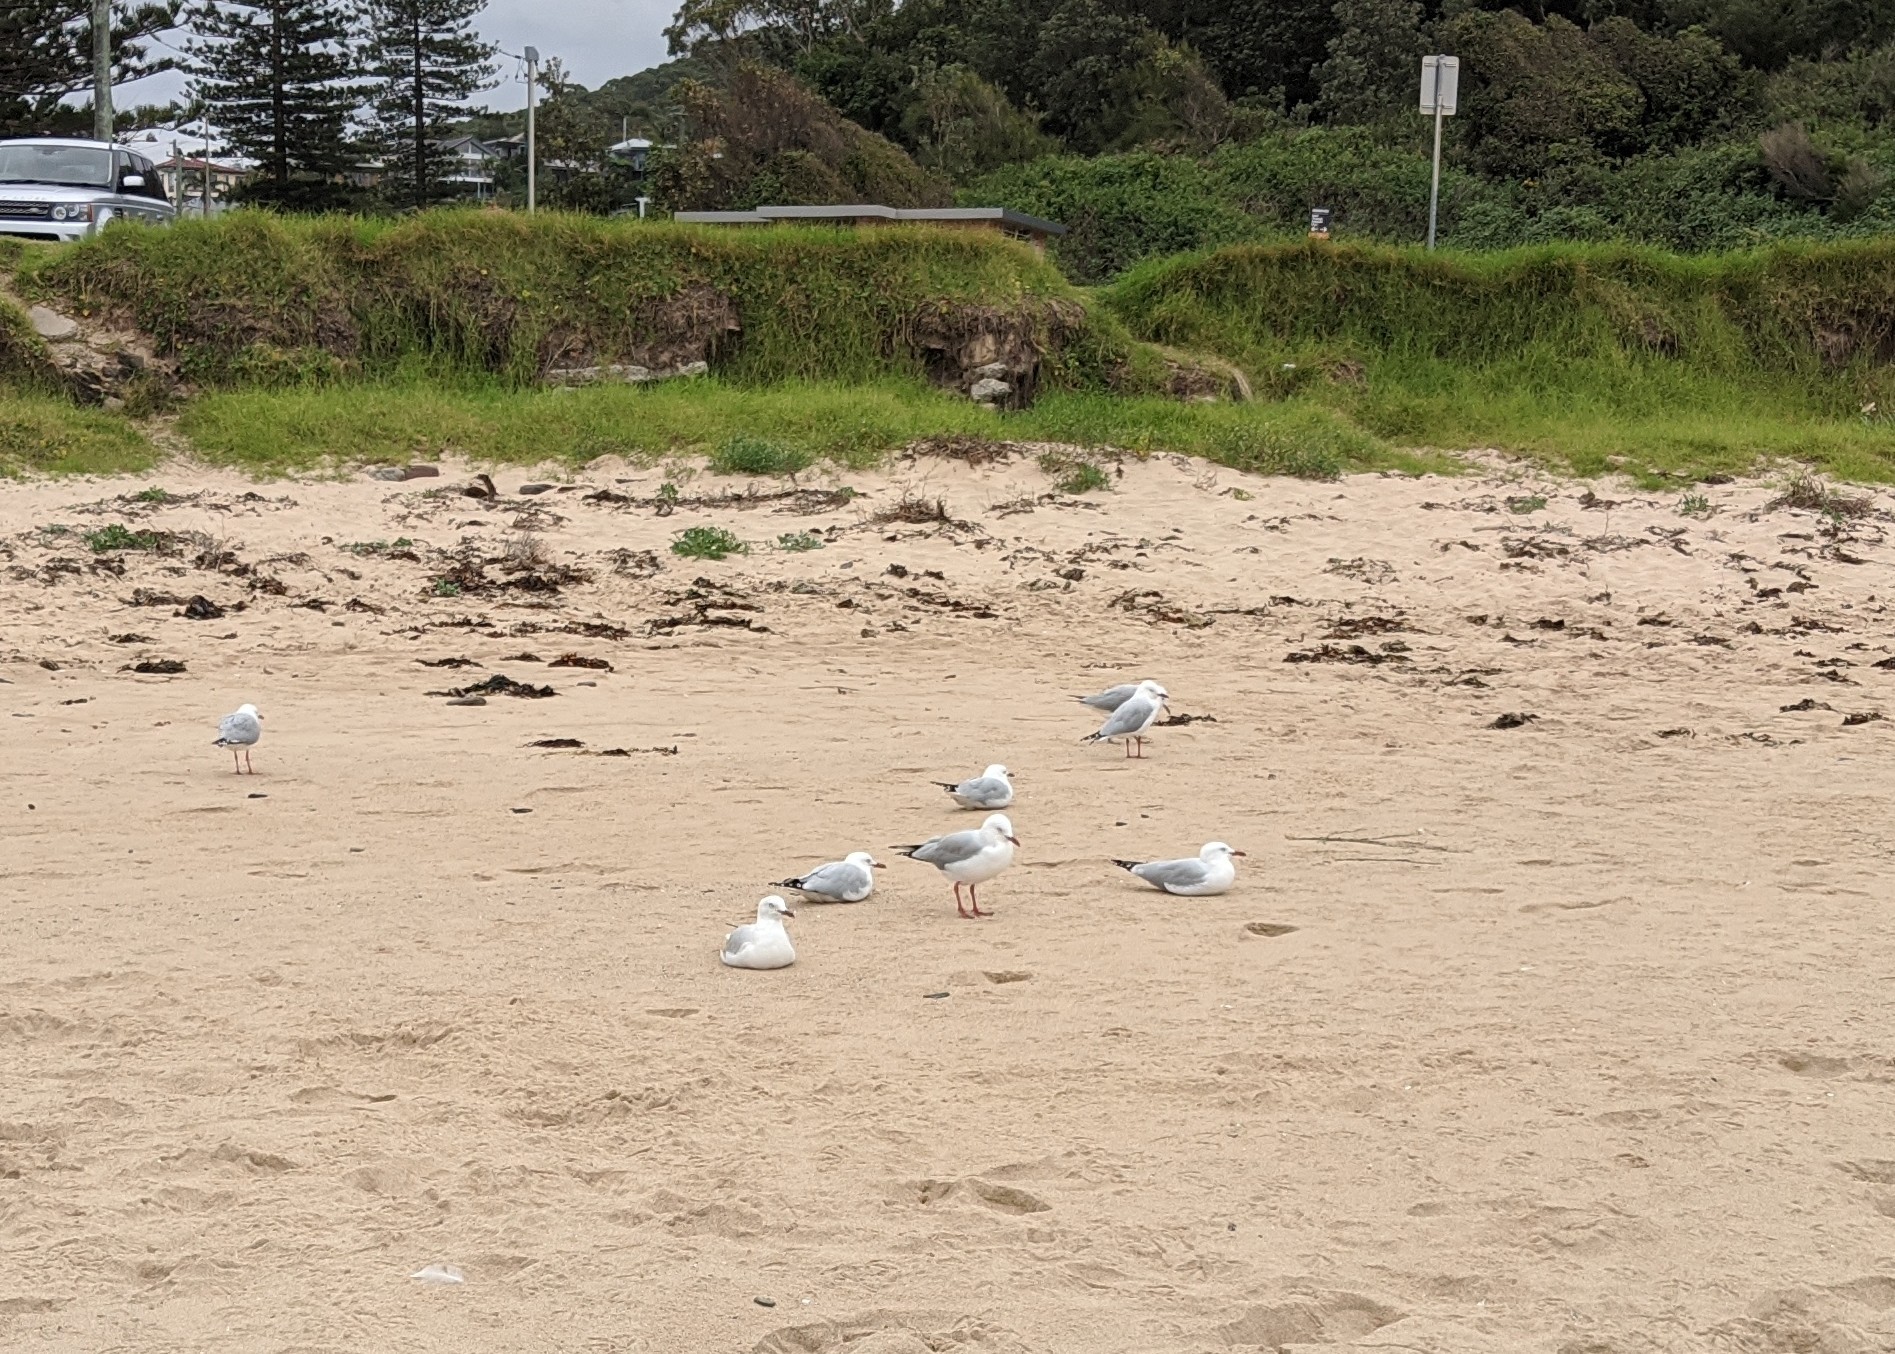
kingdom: Animalia
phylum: Chordata
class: Aves
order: Charadriiformes
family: Laridae
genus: Chroicocephalus
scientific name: Chroicocephalus novaehollandiae
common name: Silver gull
